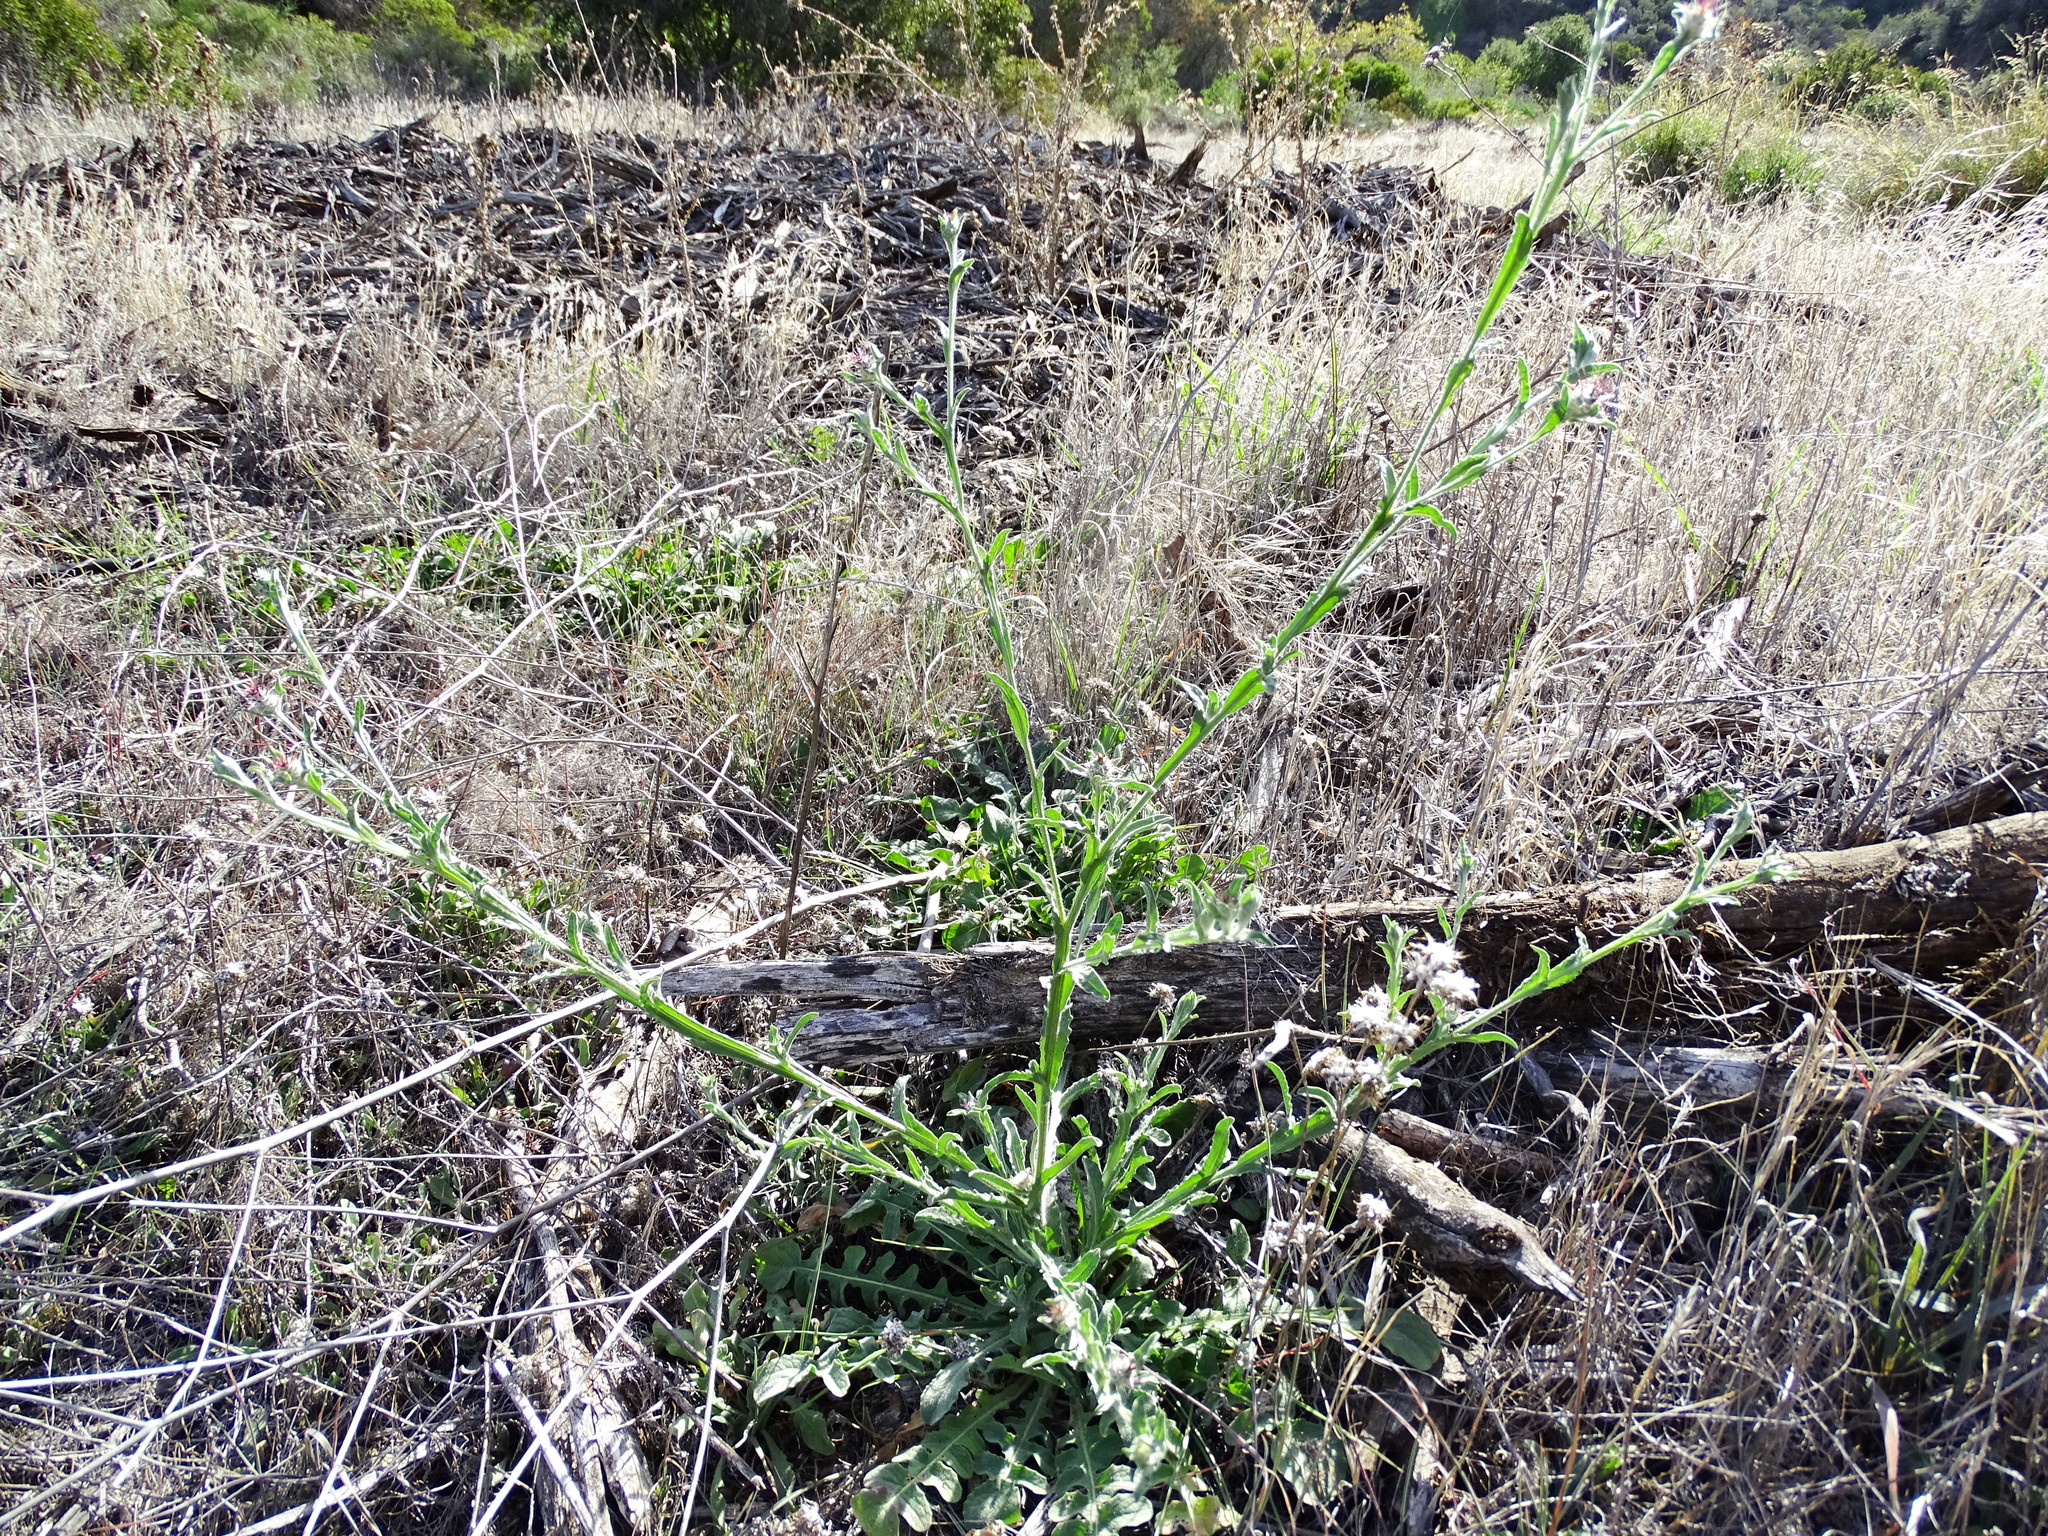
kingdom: Plantae
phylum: Tracheophyta
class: Magnoliopsida
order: Asterales
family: Asteraceae
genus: Centaurea
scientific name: Centaurea melitensis
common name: Maltese star-thistle
